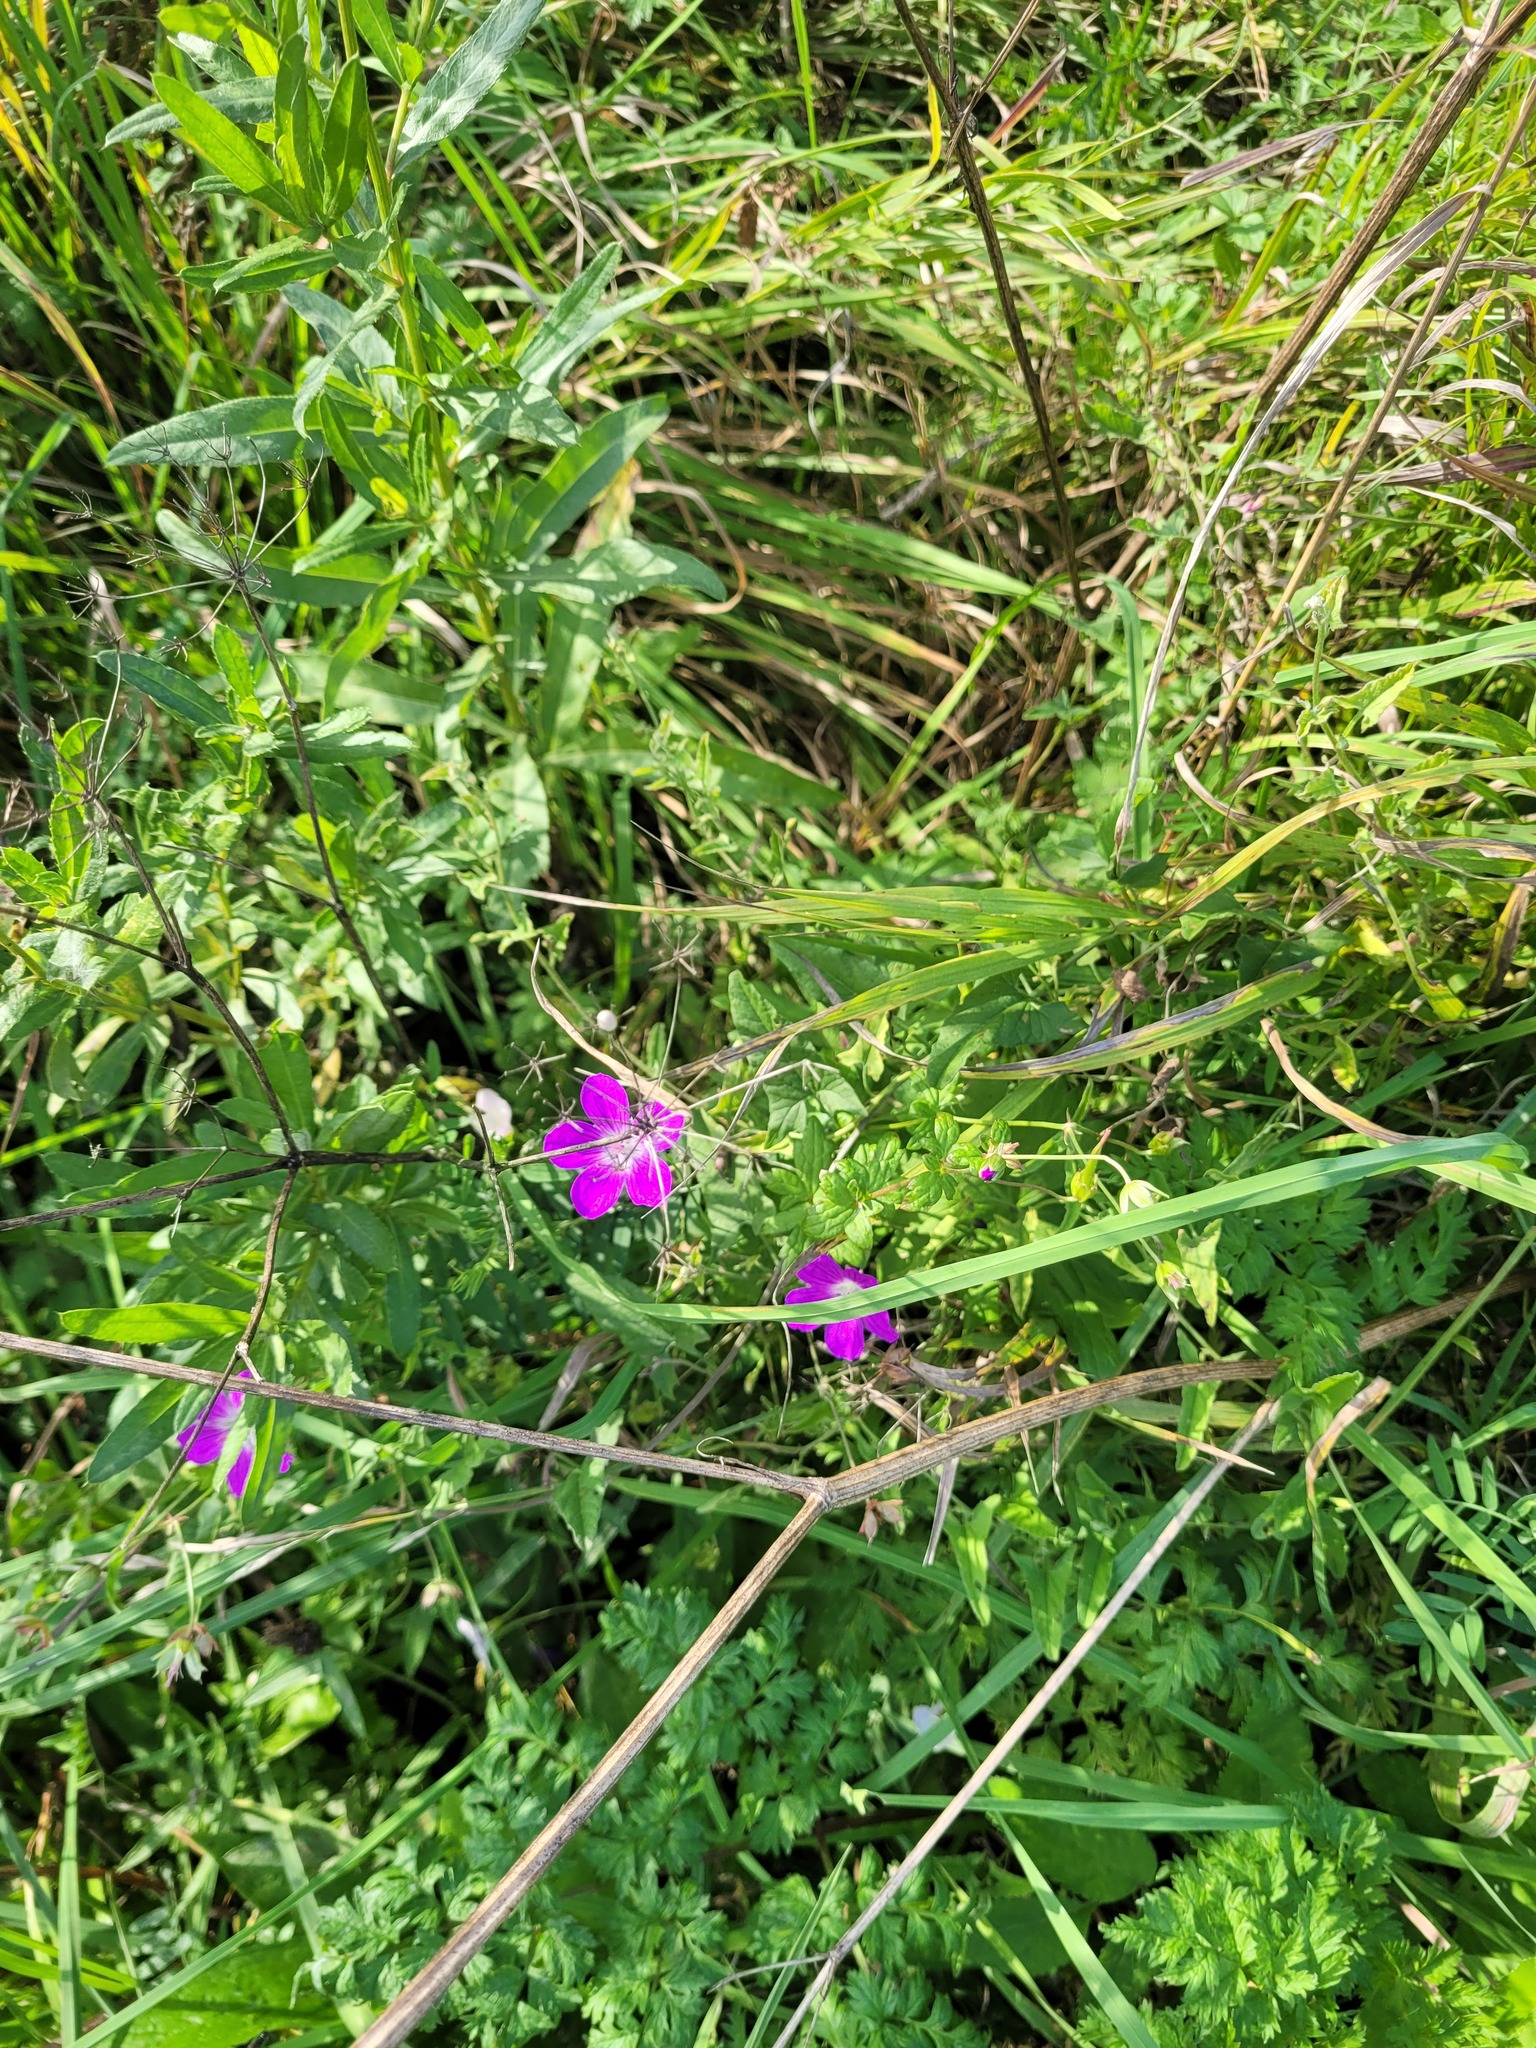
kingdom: Plantae
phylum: Tracheophyta
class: Magnoliopsida
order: Geraniales
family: Geraniaceae
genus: Geranium
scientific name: Geranium palustre
